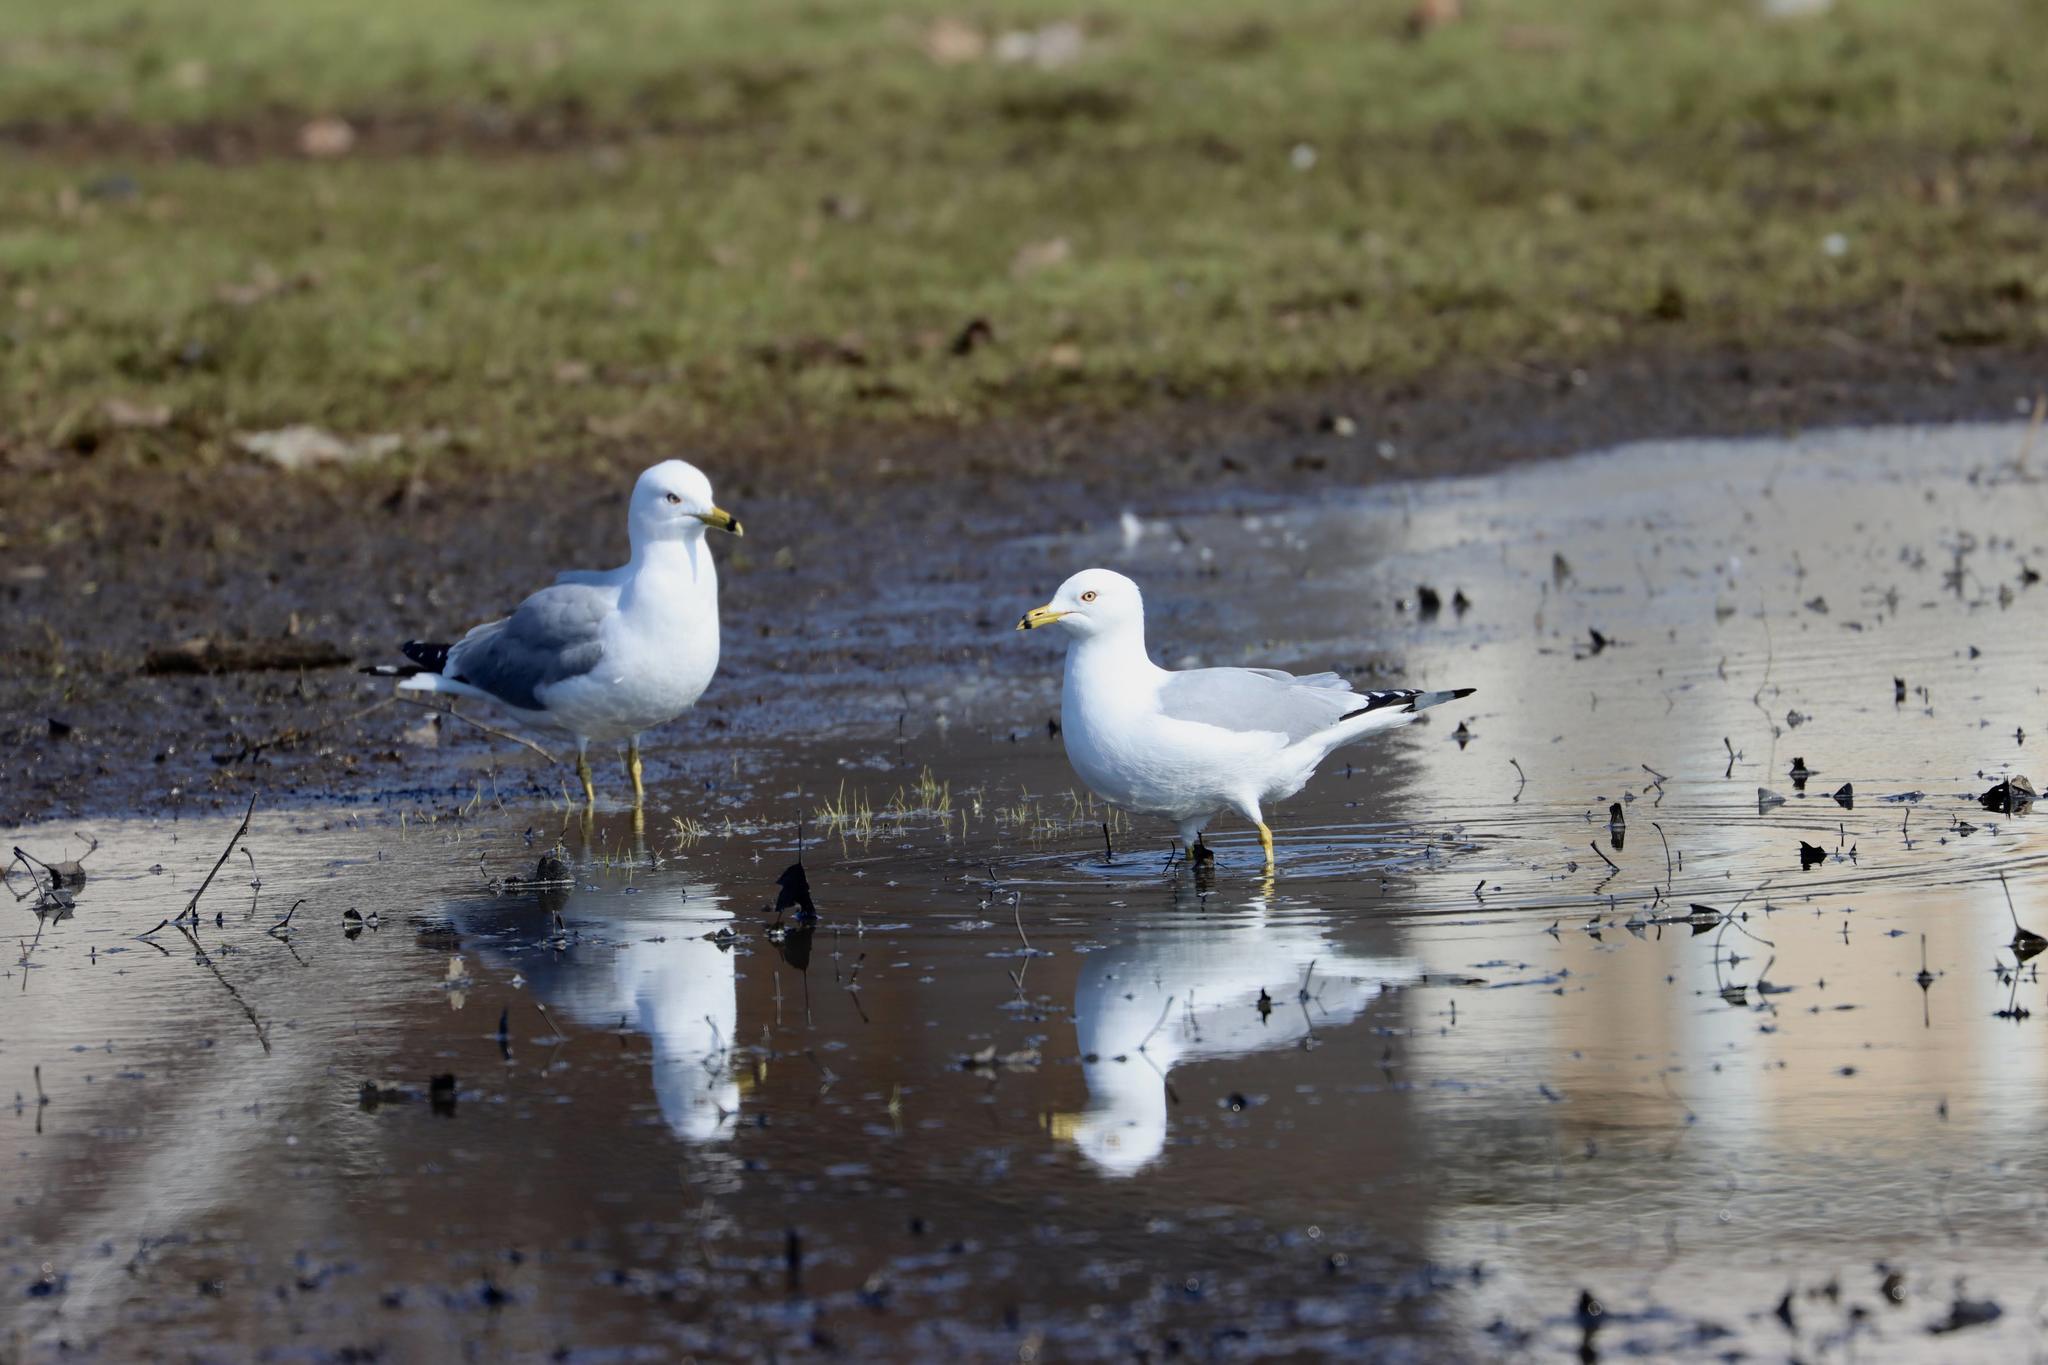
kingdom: Animalia
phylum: Chordata
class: Aves
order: Charadriiformes
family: Laridae
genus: Larus
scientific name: Larus delawarensis
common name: Ring-billed gull
